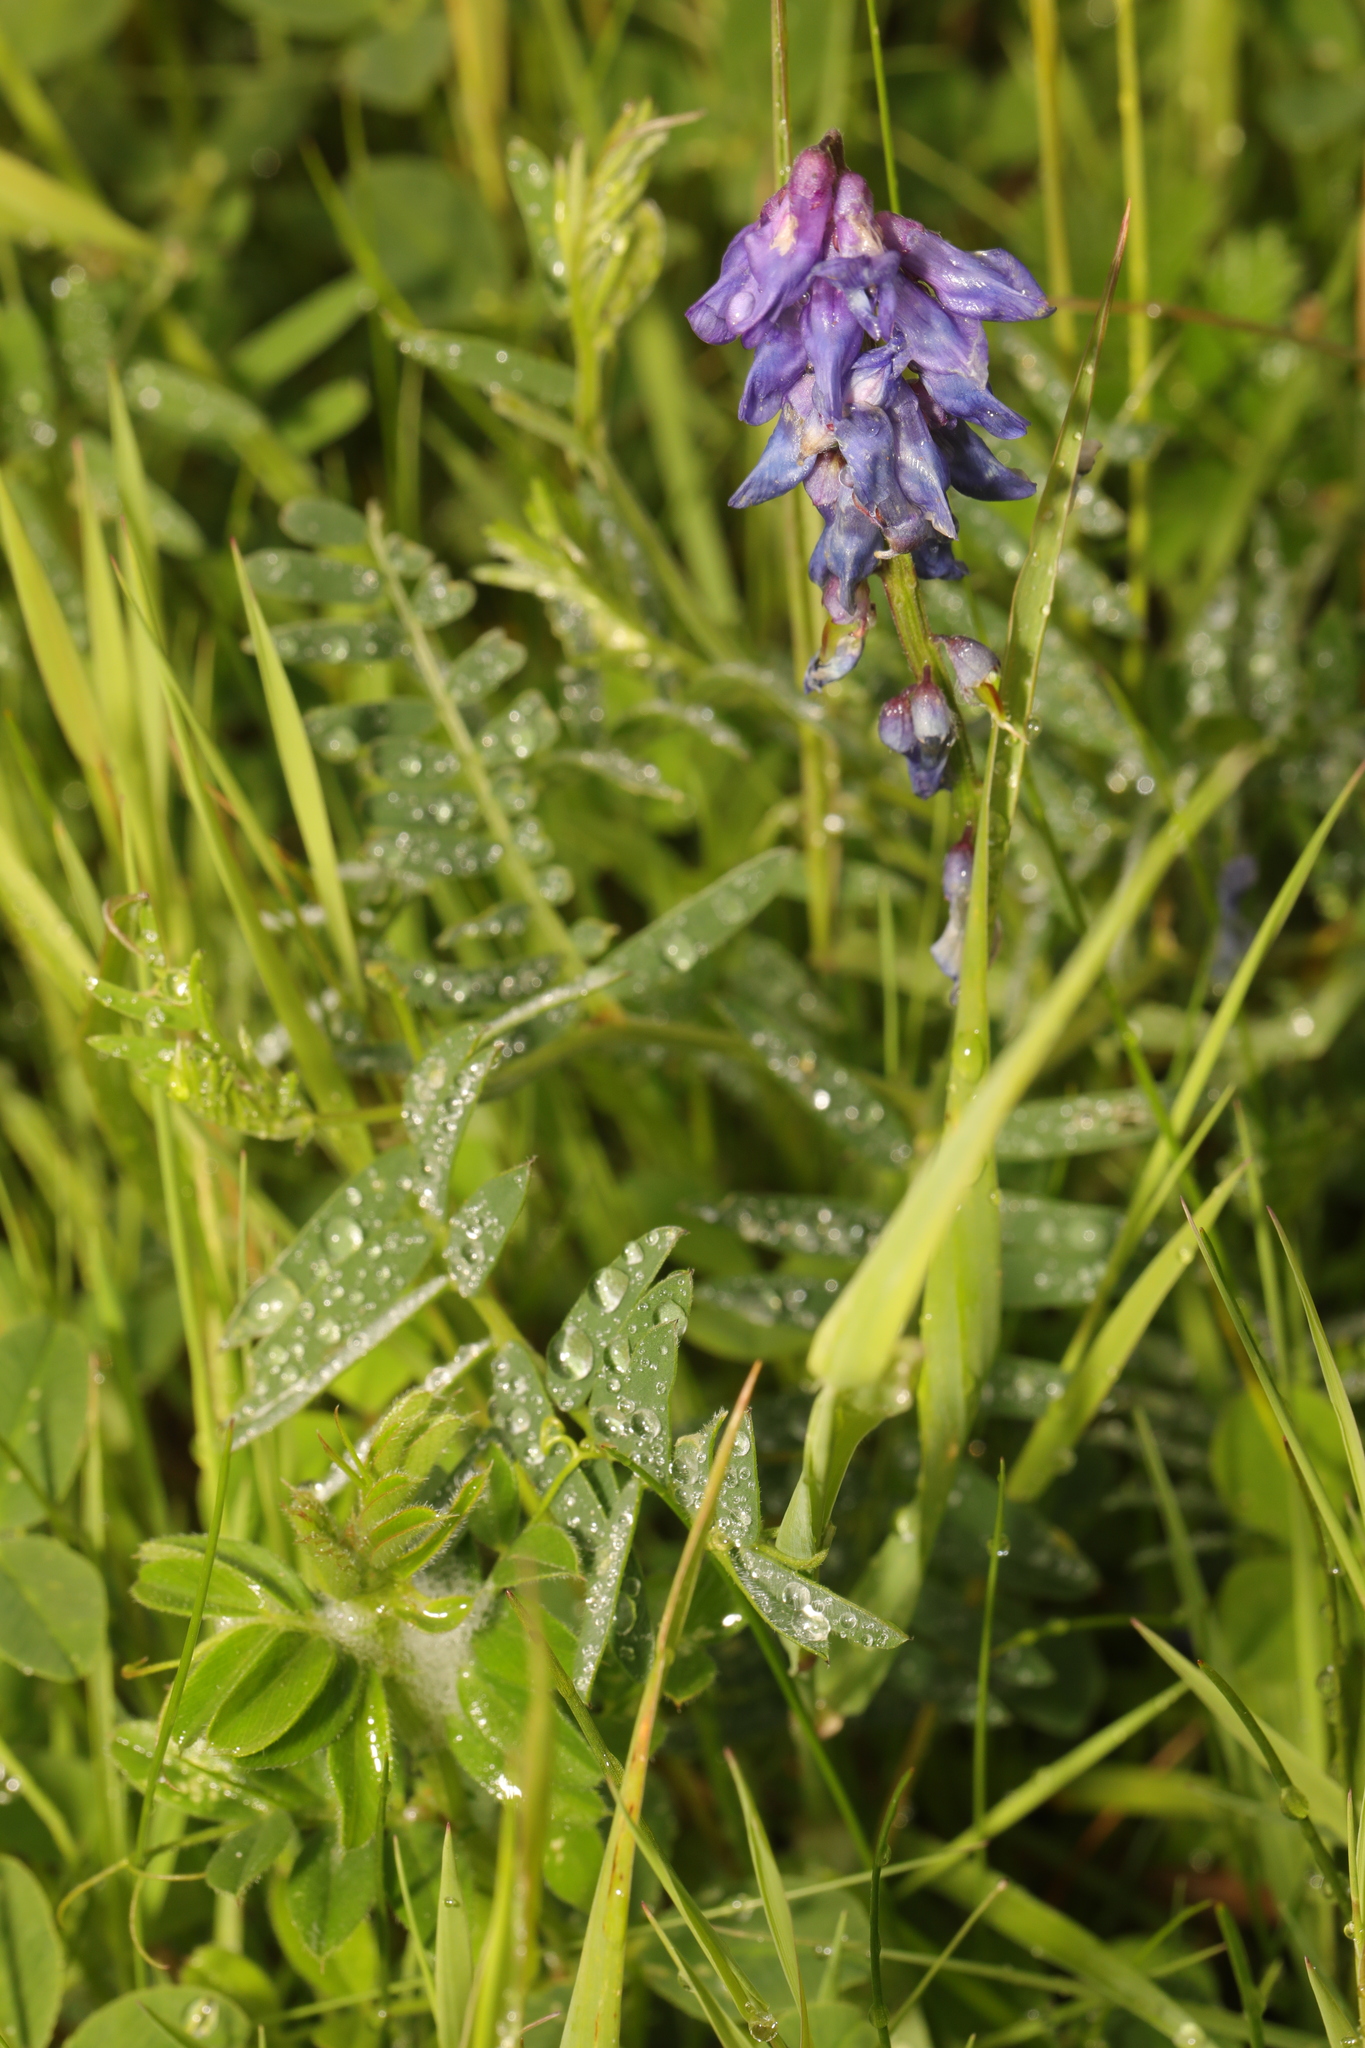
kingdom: Plantae
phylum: Tracheophyta
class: Magnoliopsida
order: Fabales
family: Fabaceae
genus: Vicia
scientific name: Vicia cracca
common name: Bird vetch
